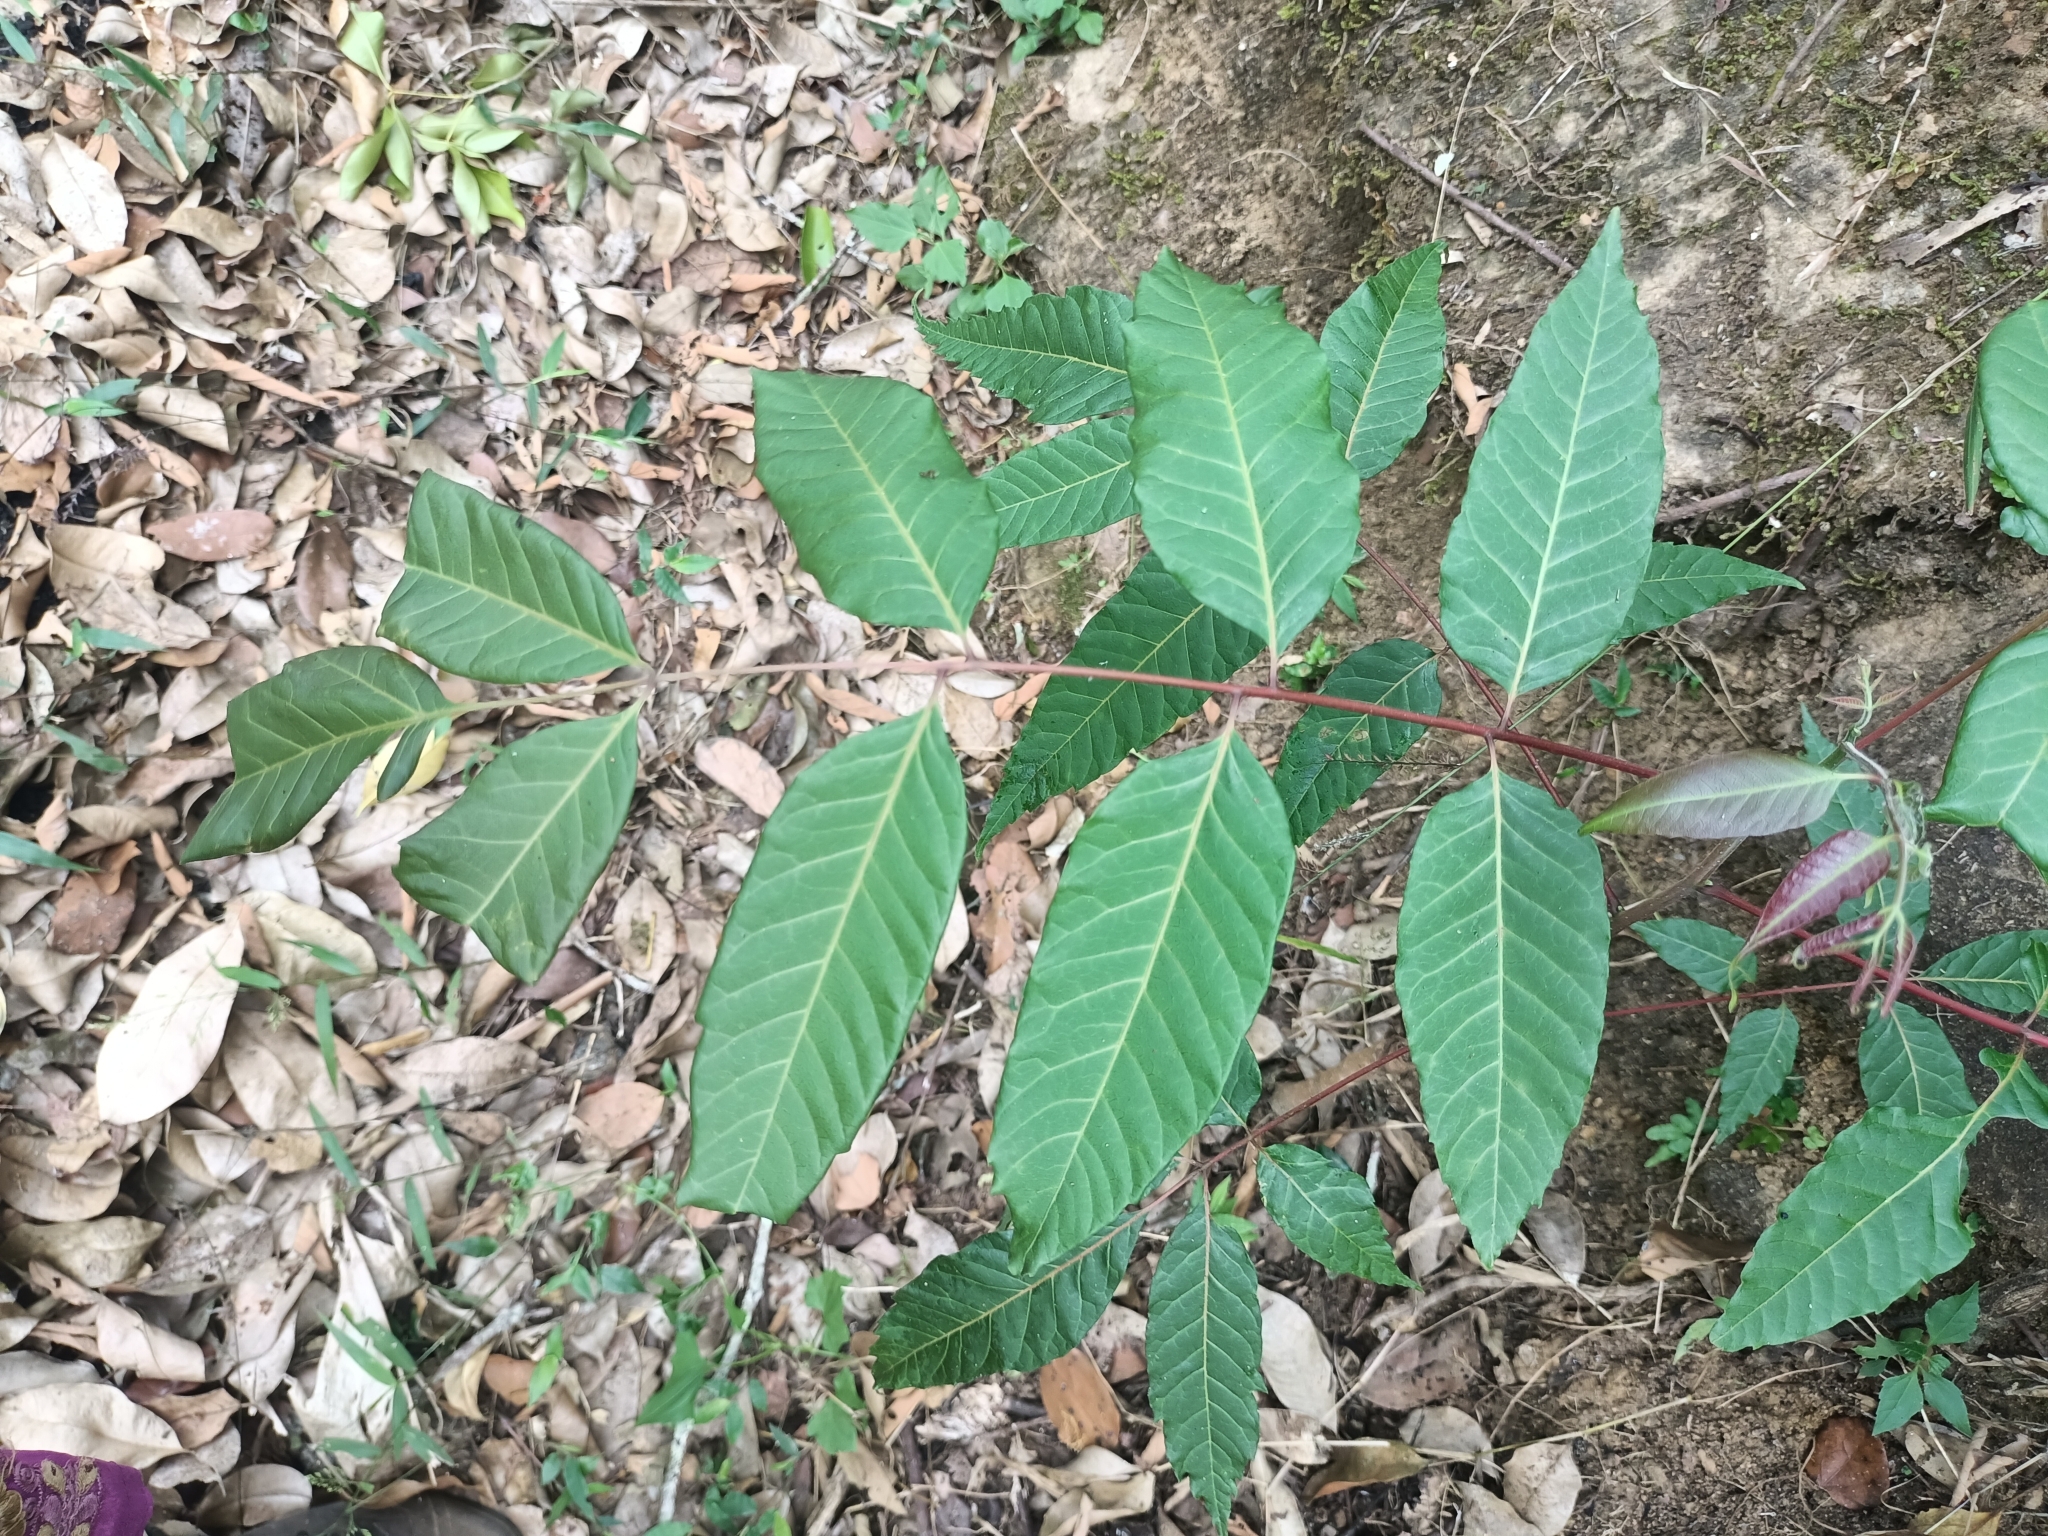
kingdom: Plantae
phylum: Tracheophyta
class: Magnoliopsida
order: Sapindales
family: Meliaceae
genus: Toona
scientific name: Toona ciliata
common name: Australian redcedar
